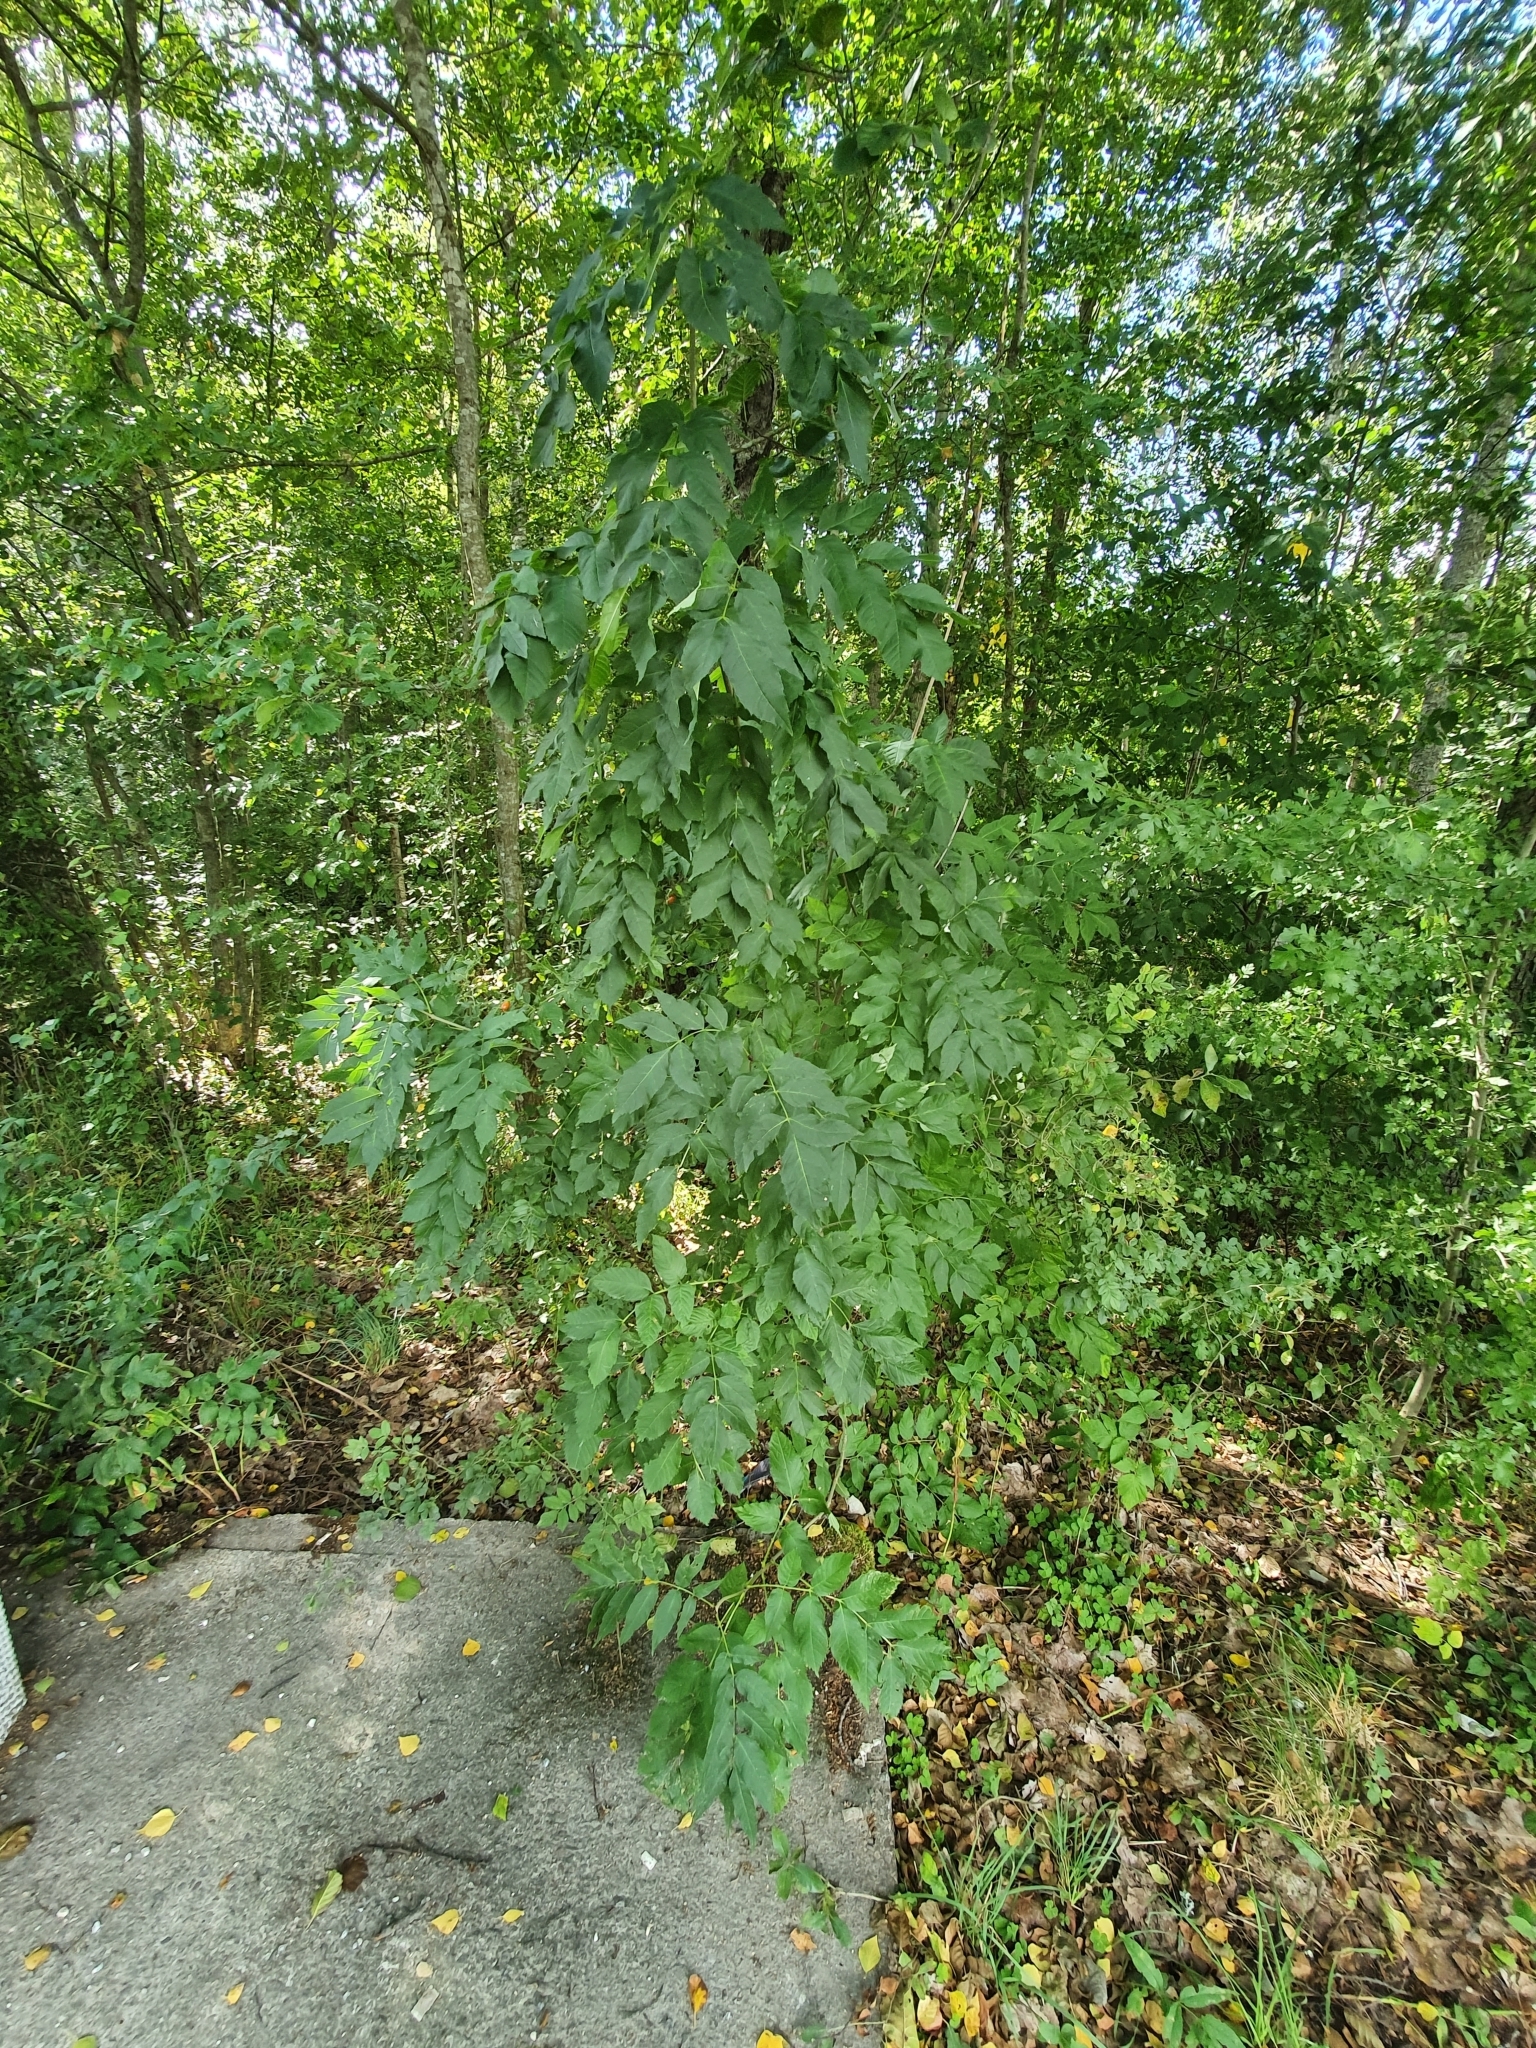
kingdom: Plantae
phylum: Tracheophyta
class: Magnoliopsida
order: Lamiales
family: Oleaceae
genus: Fraxinus
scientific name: Fraxinus excelsior
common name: European ash
